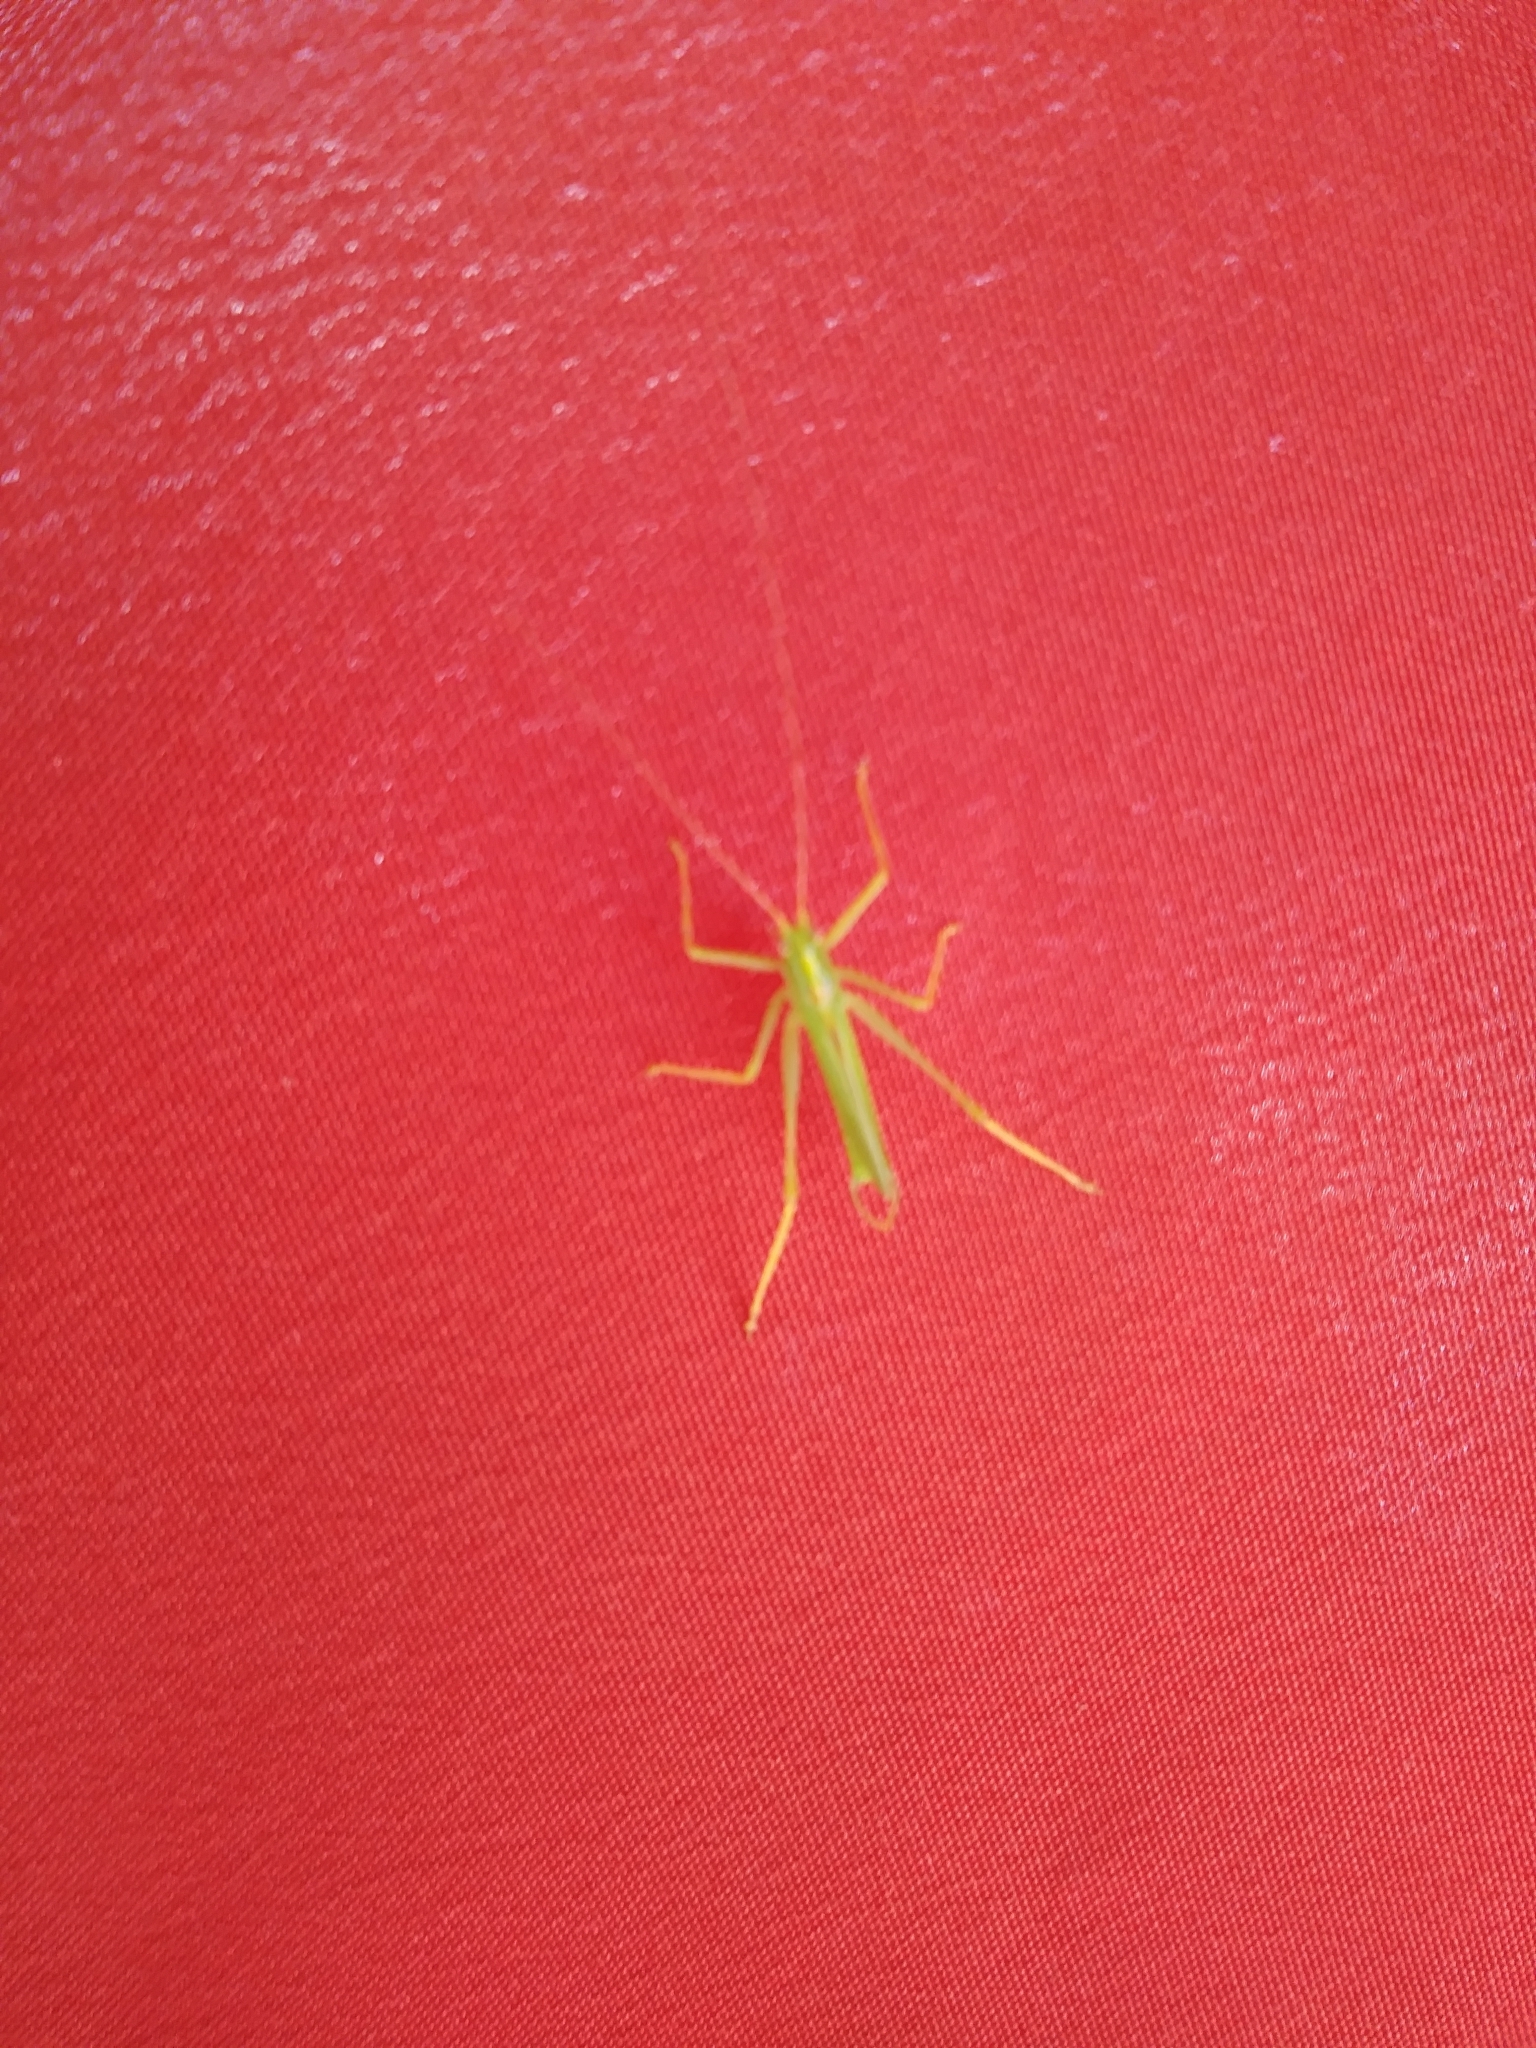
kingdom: Animalia
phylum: Arthropoda
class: Insecta
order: Orthoptera
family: Tettigoniidae
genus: Meconema
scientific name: Meconema thalassinum
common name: Oak bush-cricket
